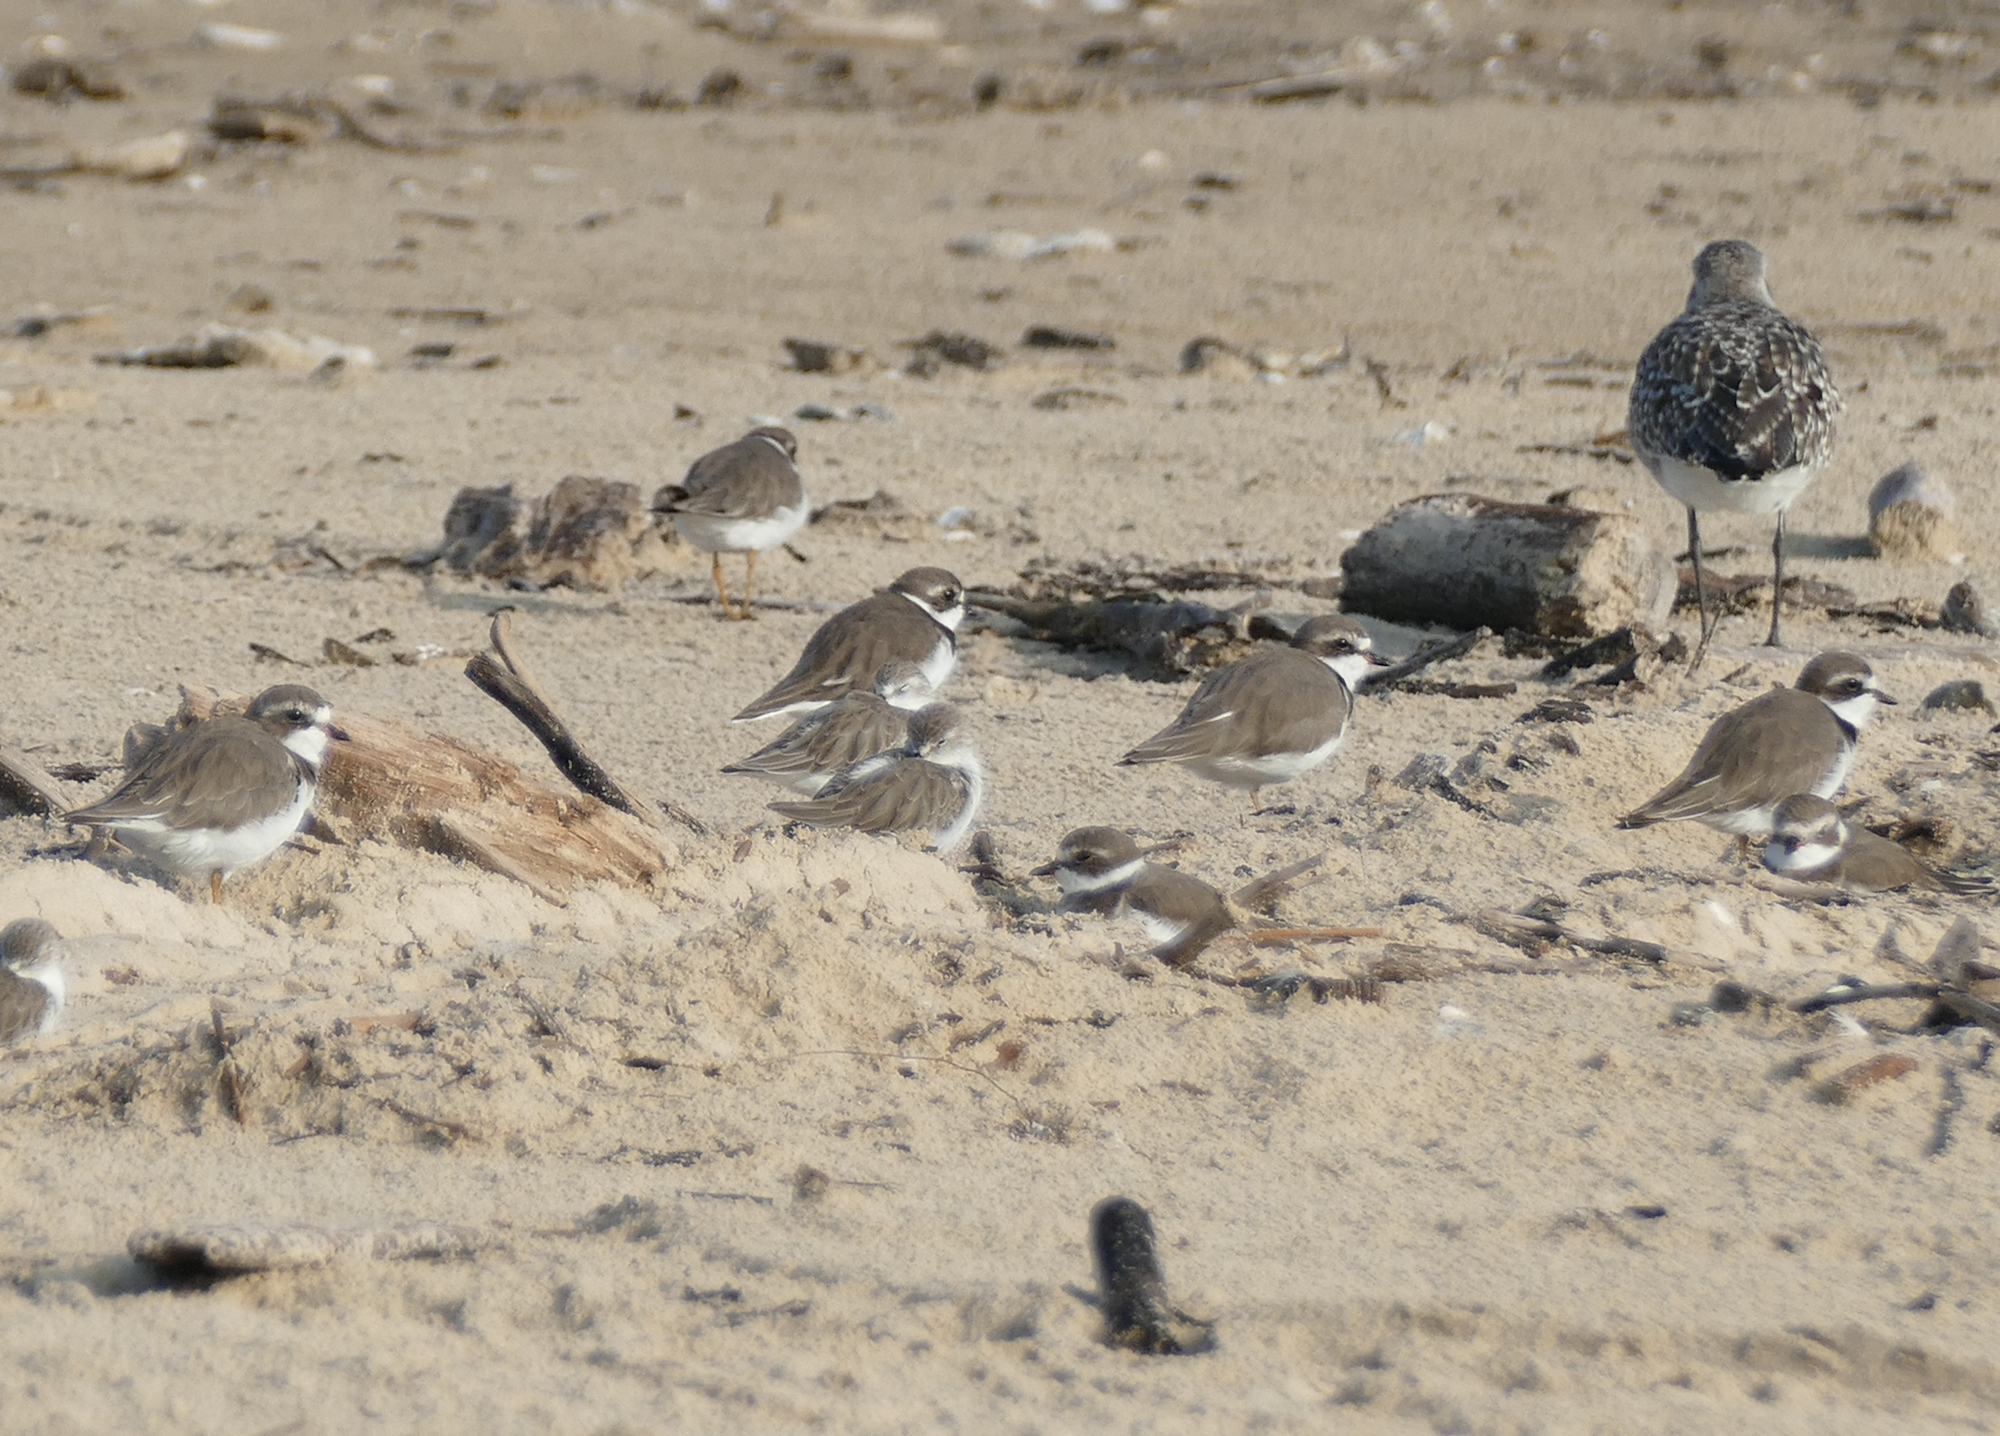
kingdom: Animalia
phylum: Chordata
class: Aves
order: Charadriiformes
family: Charadriidae
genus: Charadrius
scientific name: Charadrius semipalmatus
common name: Semipalmated plover
